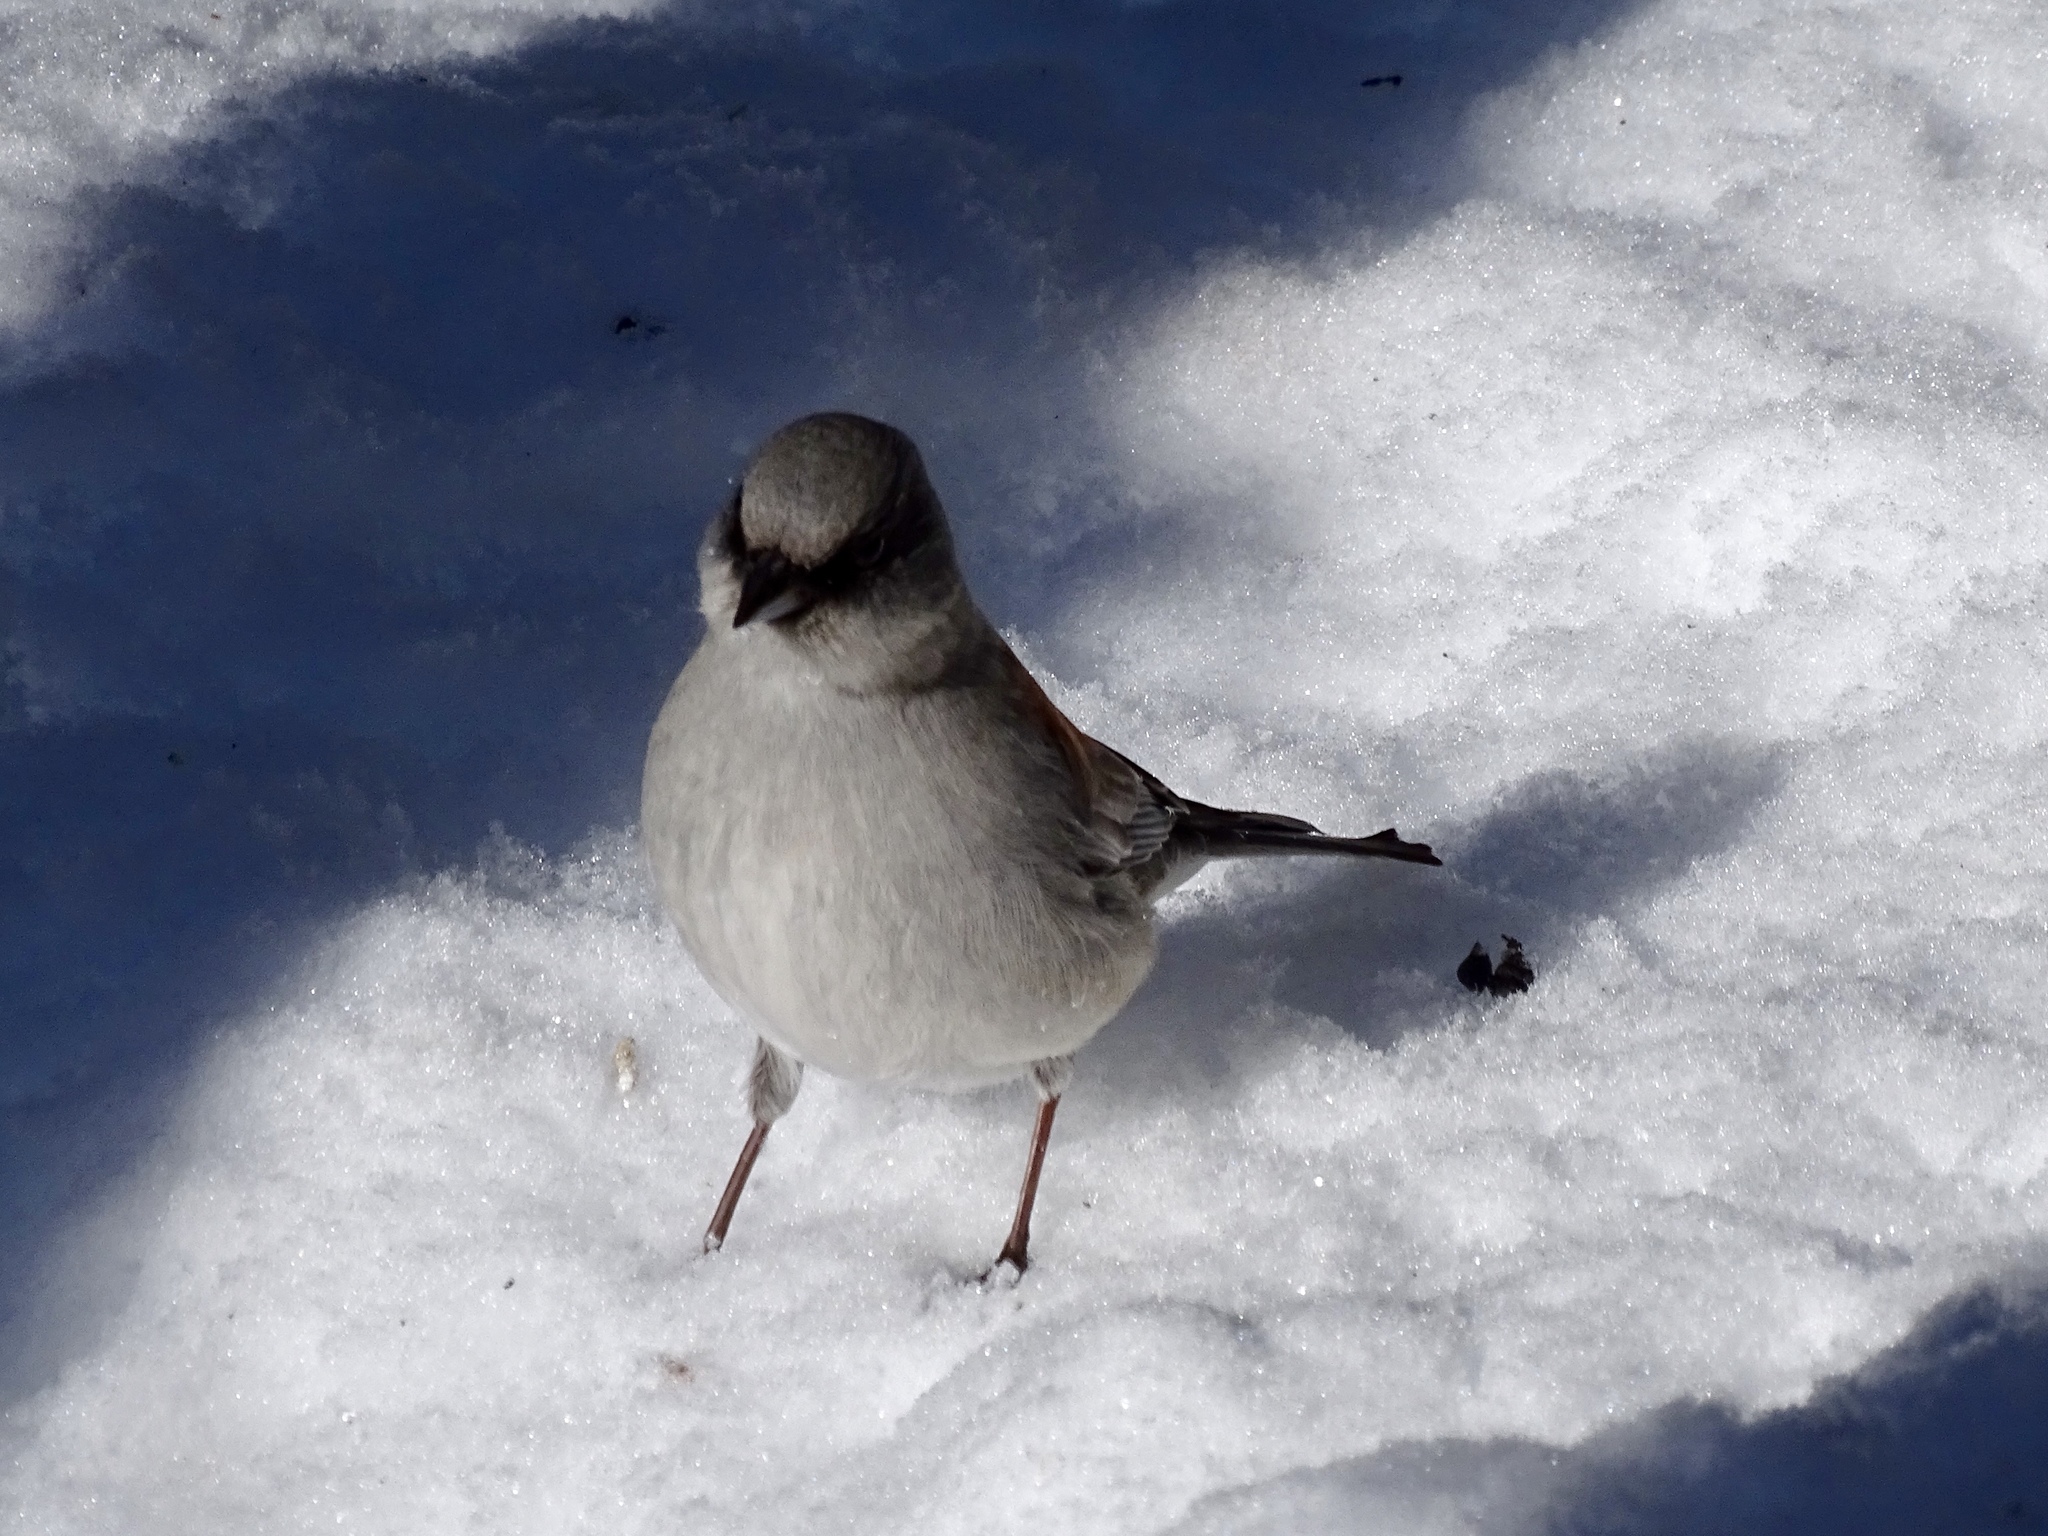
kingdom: Animalia
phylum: Chordata
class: Aves
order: Passeriformes
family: Passerellidae
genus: Junco
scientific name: Junco hyemalis
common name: Dark-eyed junco
